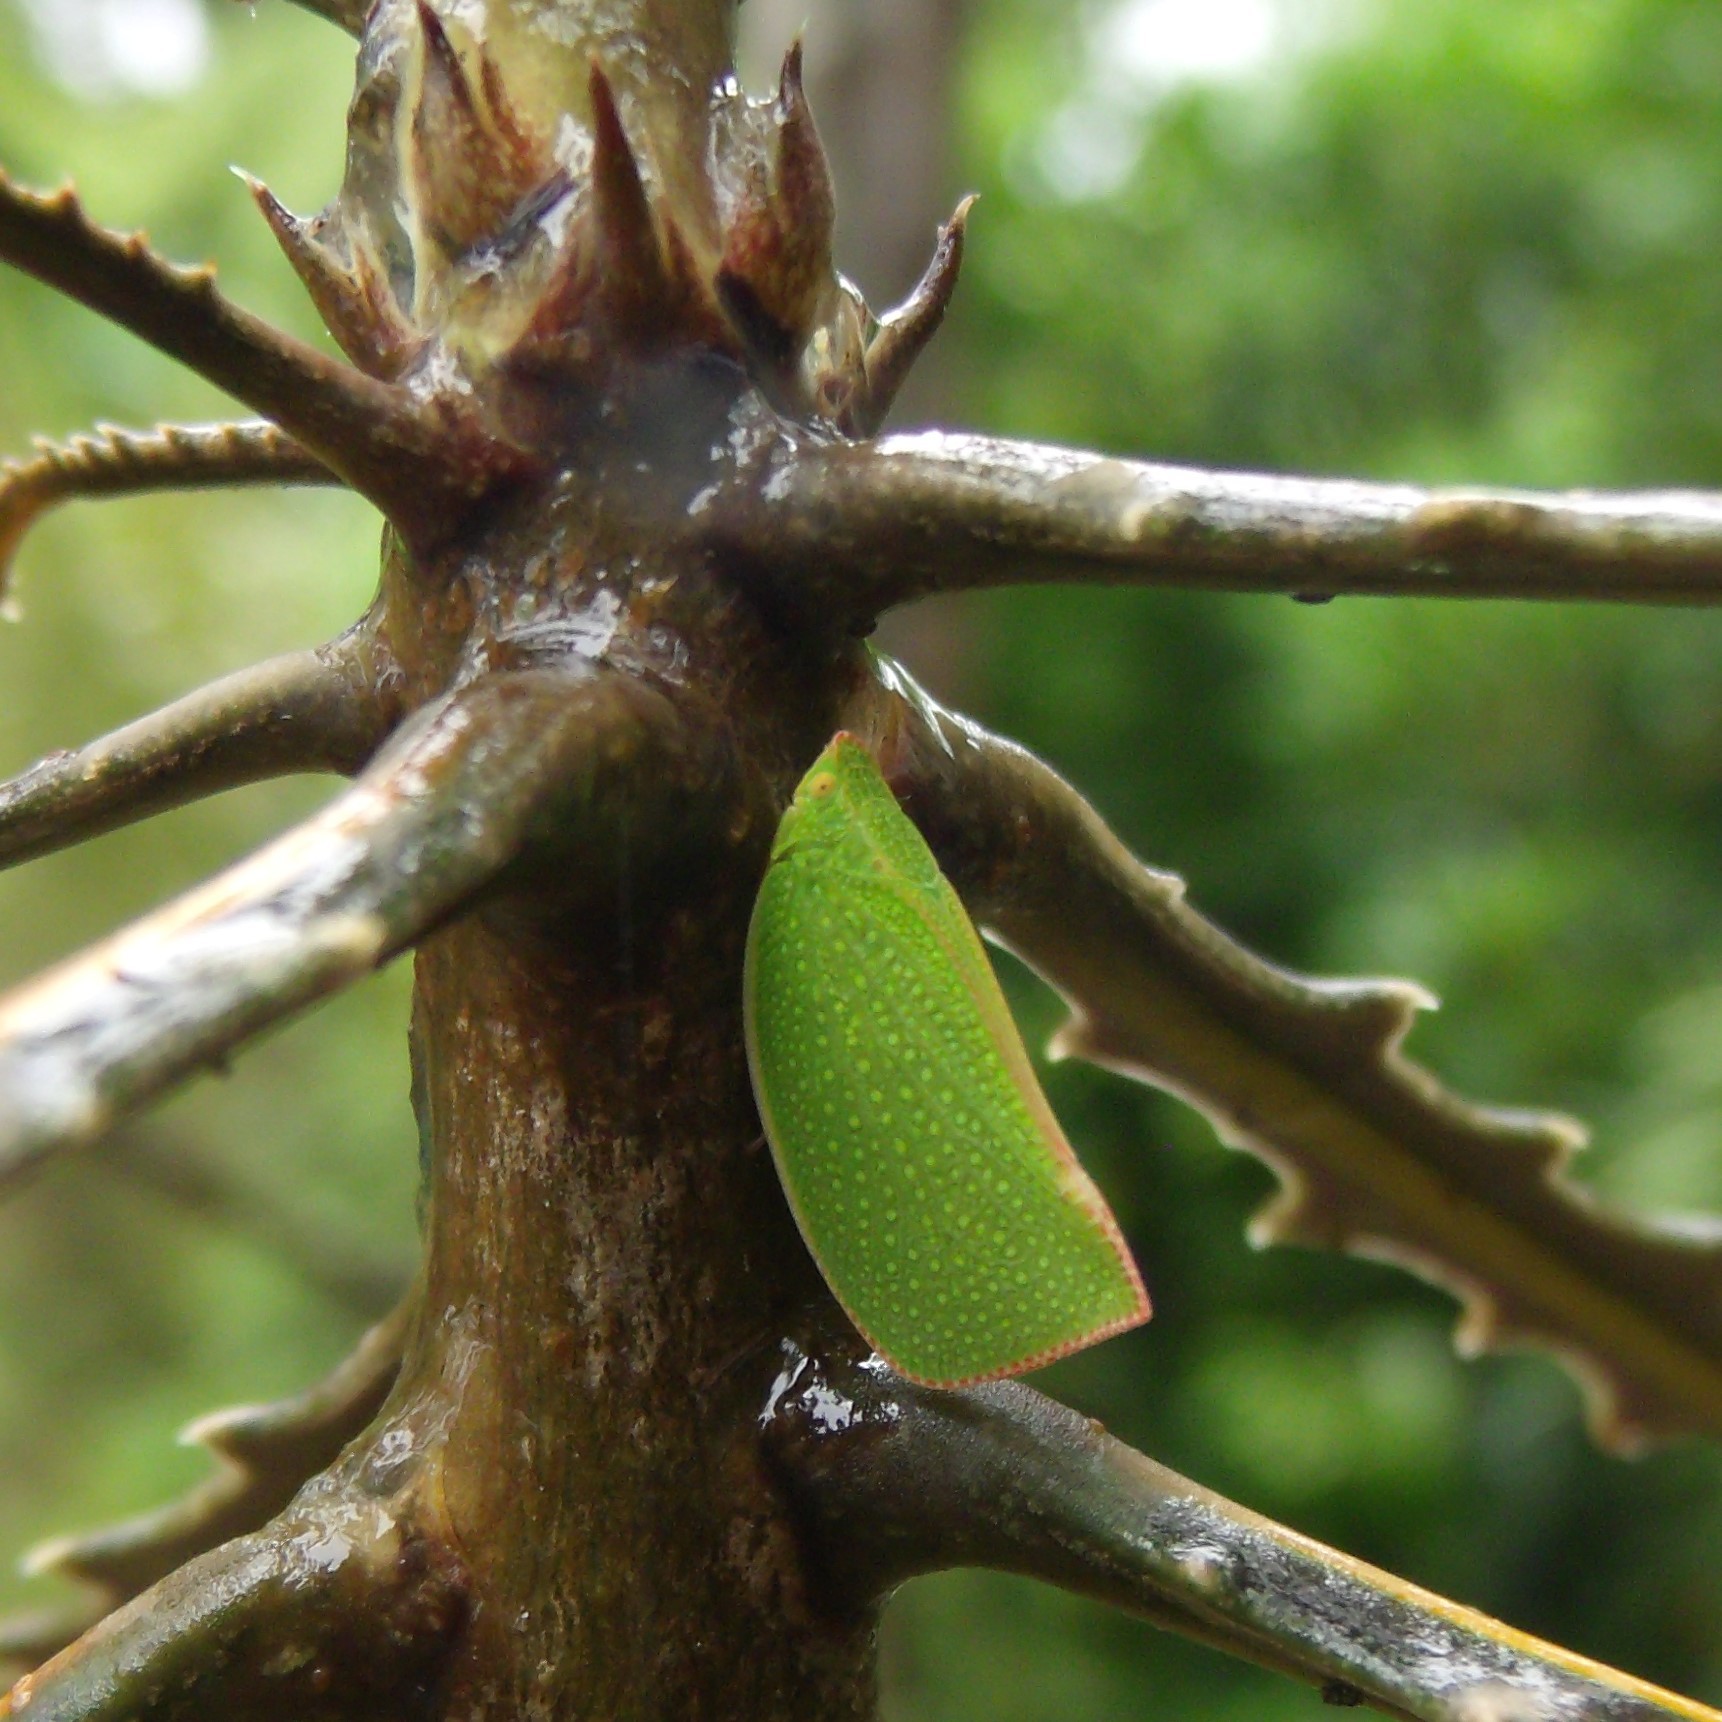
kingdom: Animalia
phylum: Arthropoda
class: Insecta
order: Hemiptera
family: Flatidae
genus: Siphanta
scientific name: Siphanta acuta
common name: Torpedo bug
